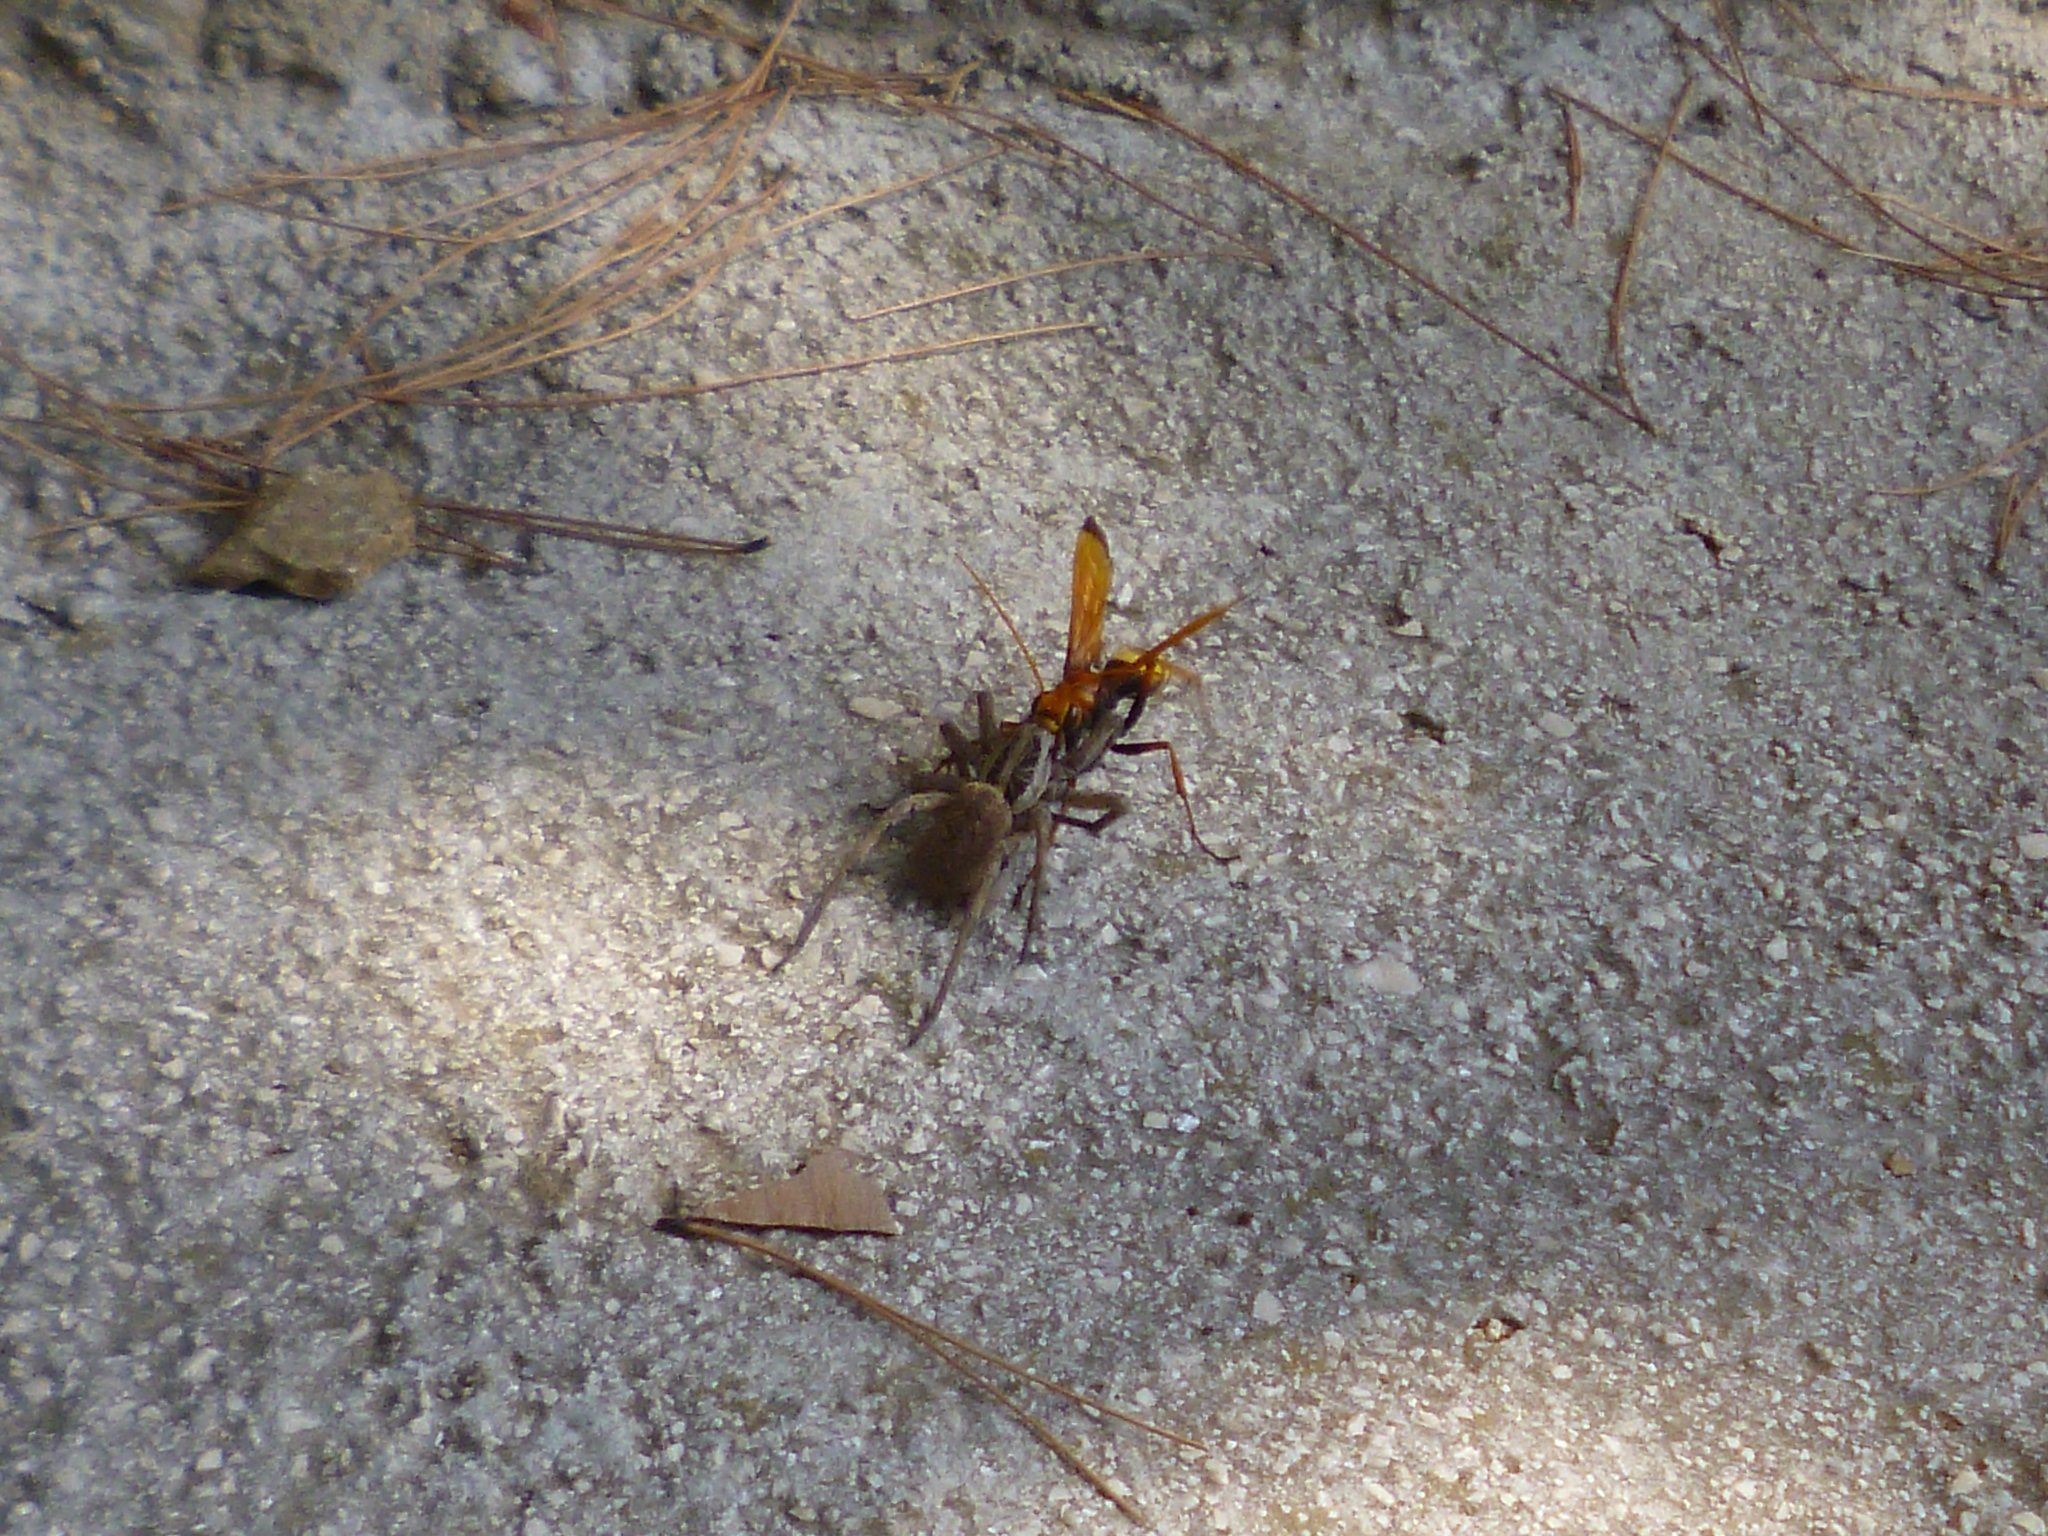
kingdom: Animalia
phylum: Arthropoda
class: Arachnida
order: Araneae
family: Lycosidae
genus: Hogna
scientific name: Hogna radiata
